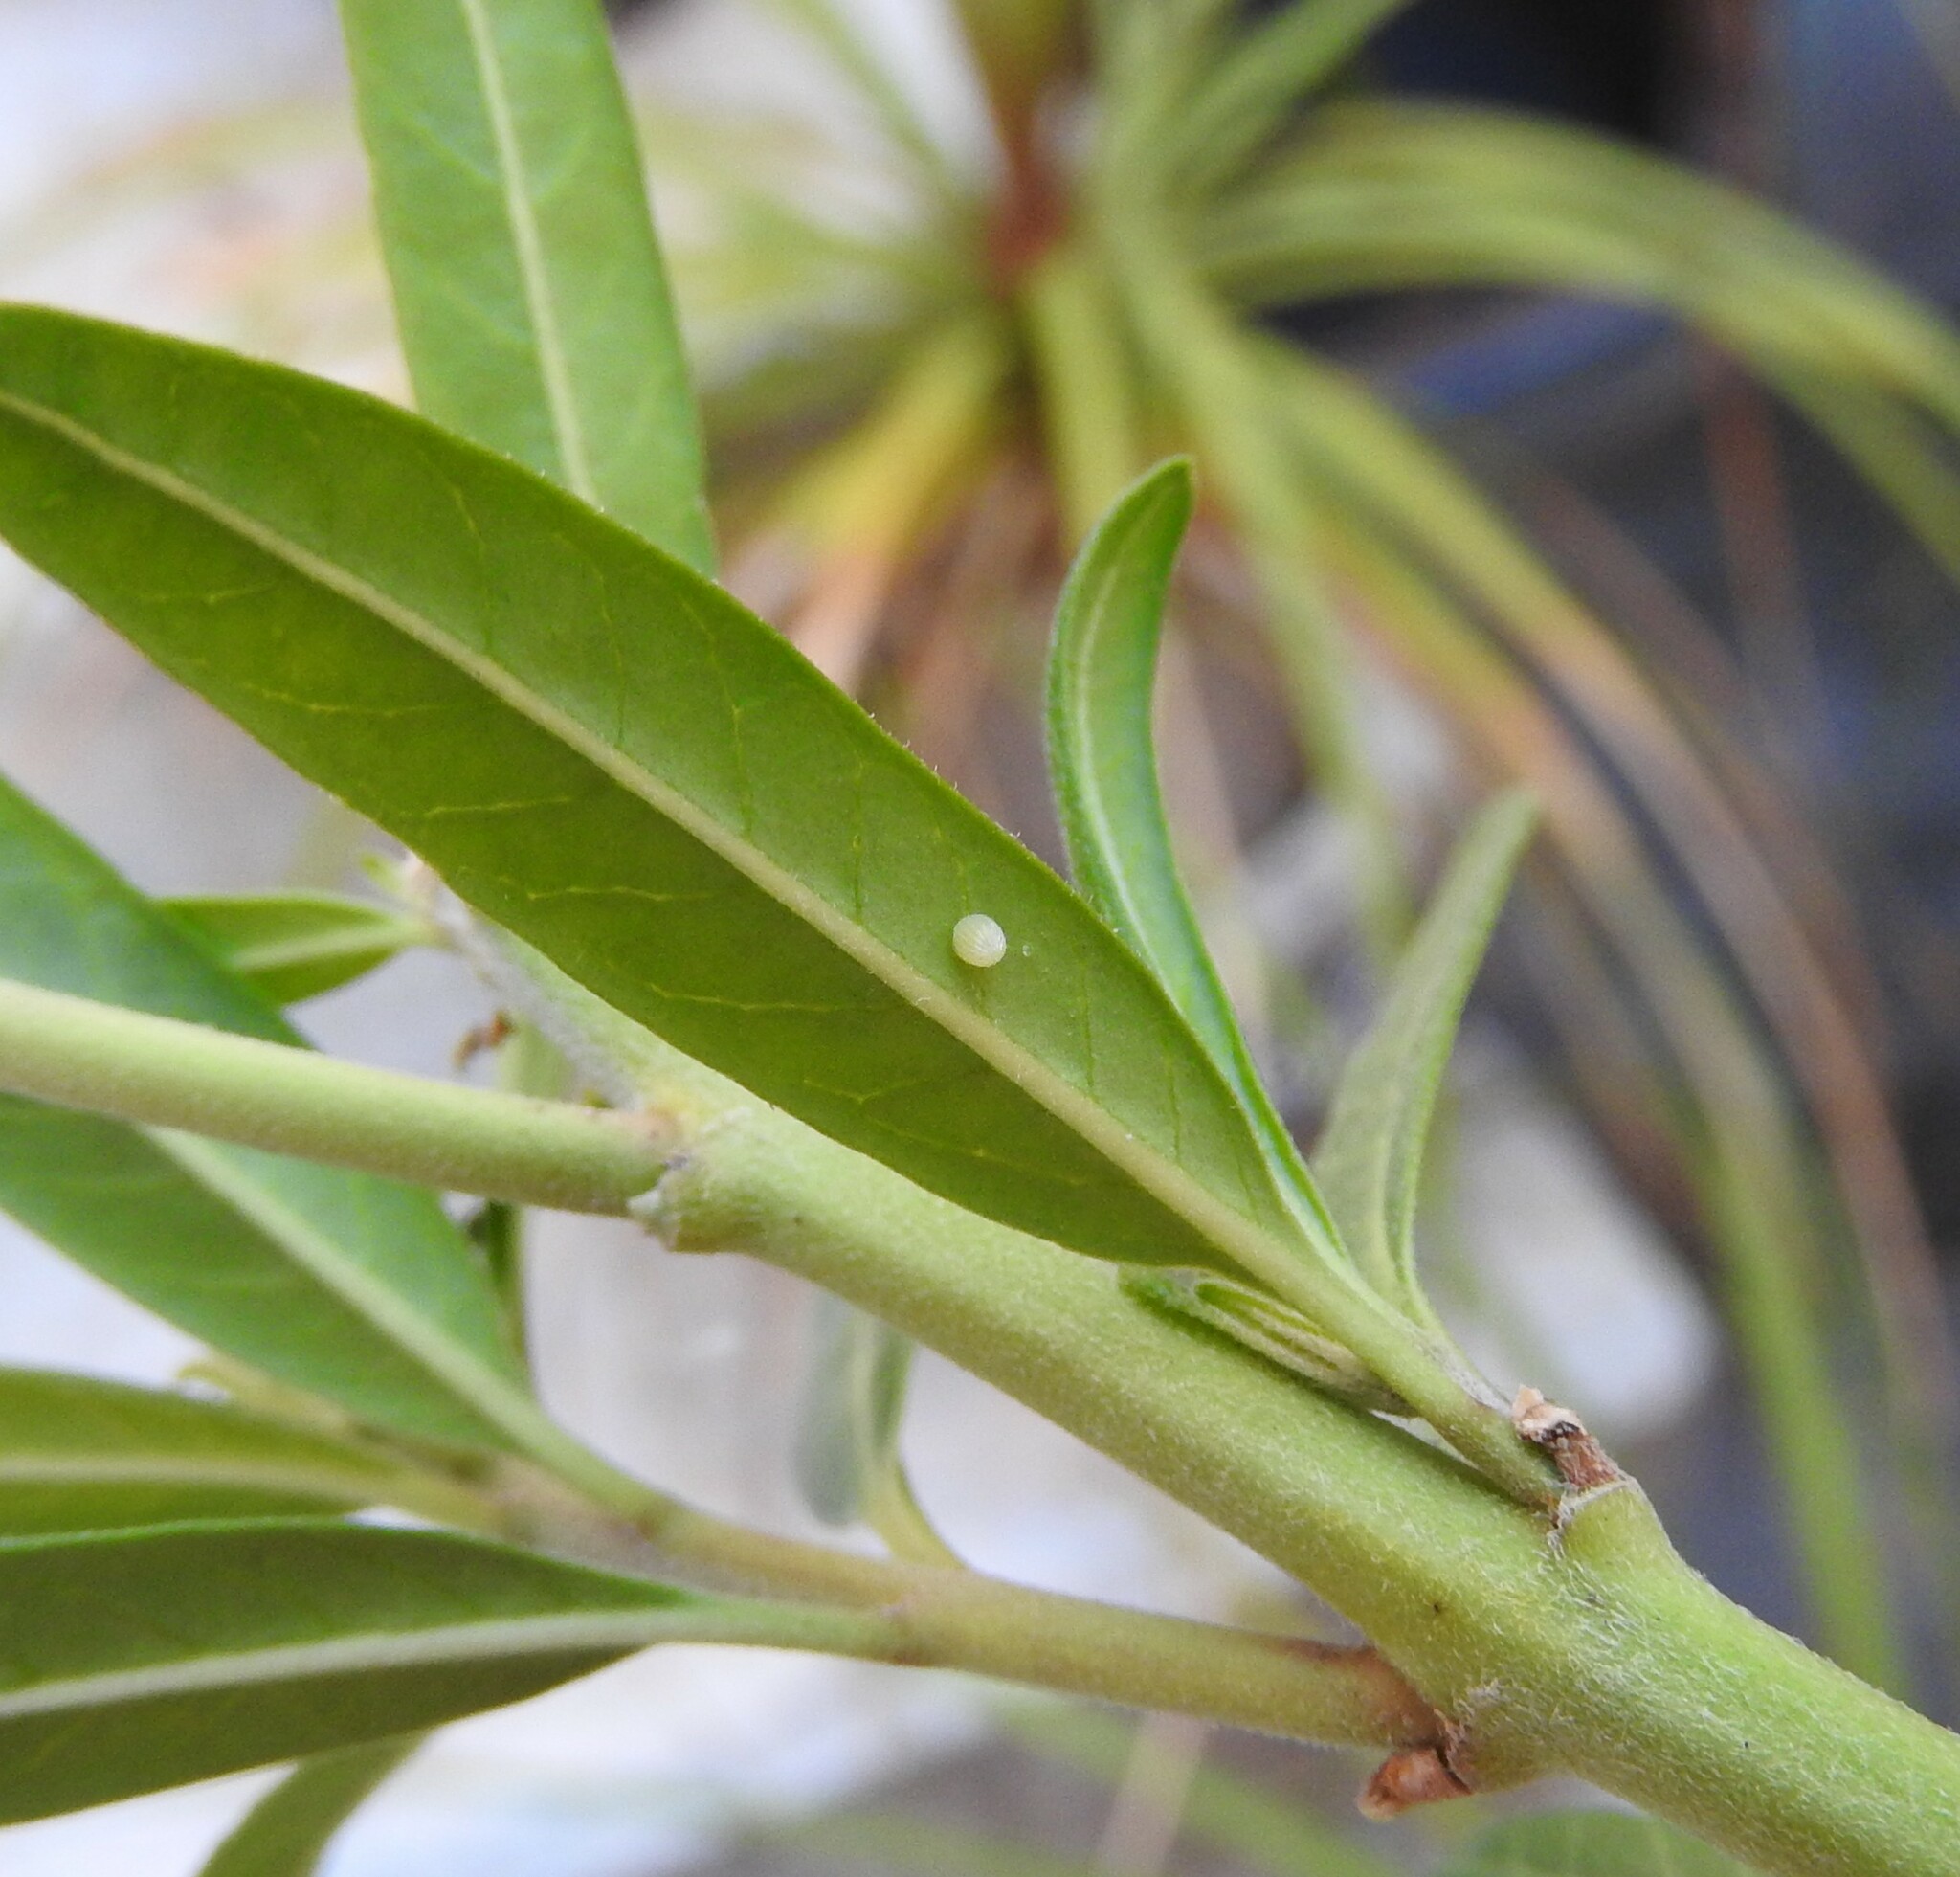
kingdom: Animalia
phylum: Arthropoda
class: Insecta
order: Lepidoptera
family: Nymphalidae
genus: Danaus
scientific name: Danaus plexippus
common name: Monarch
